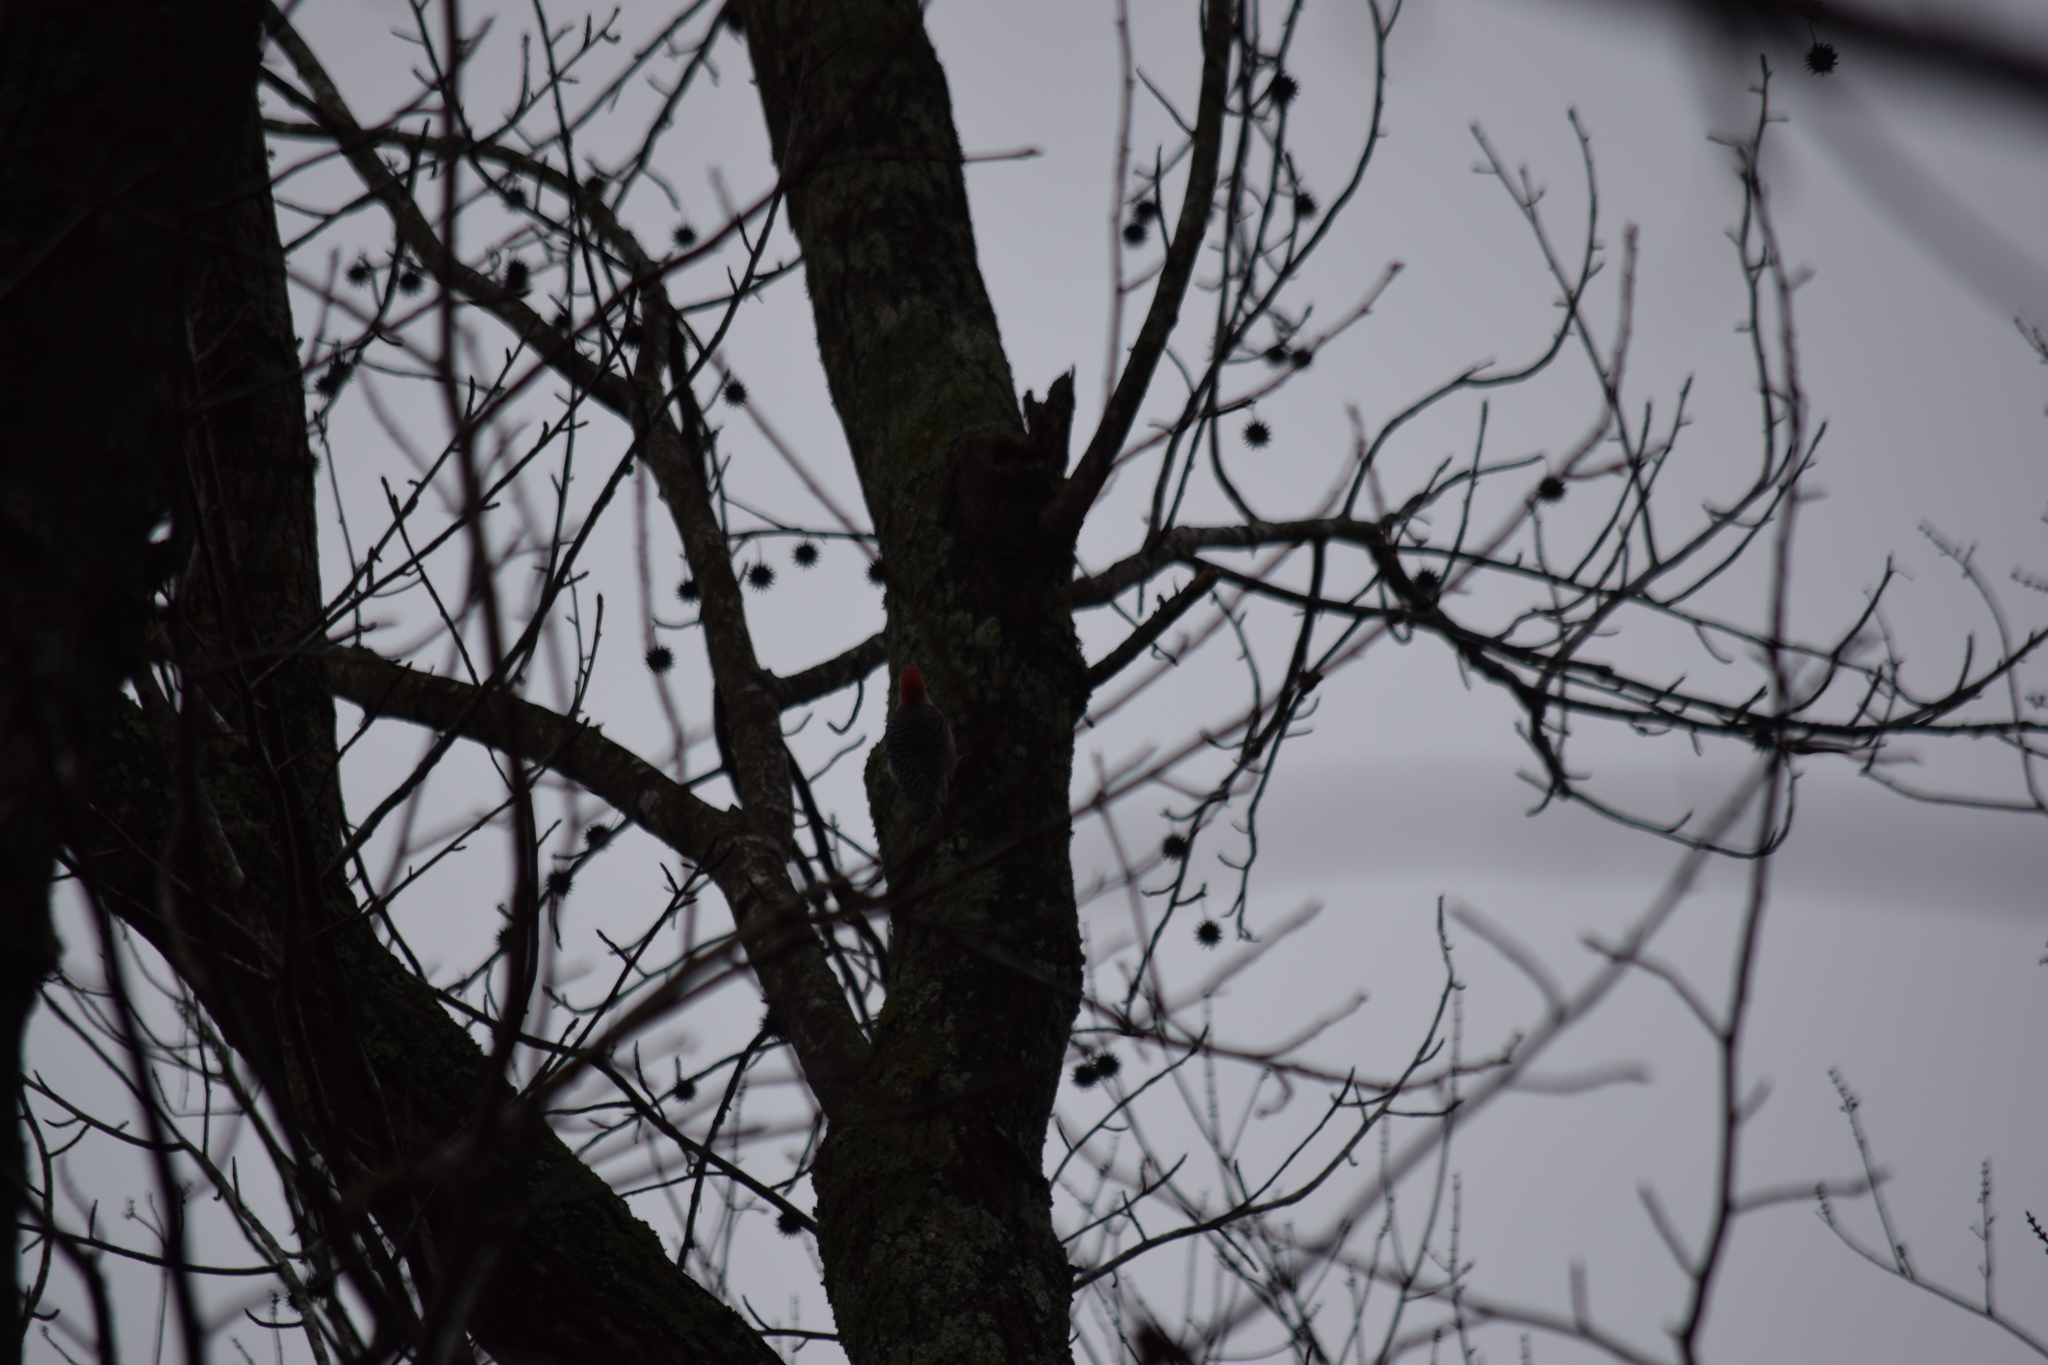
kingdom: Animalia
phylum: Chordata
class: Aves
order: Piciformes
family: Picidae
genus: Melanerpes
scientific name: Melanerpes carolinus
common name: Red-bellied woodpecker
